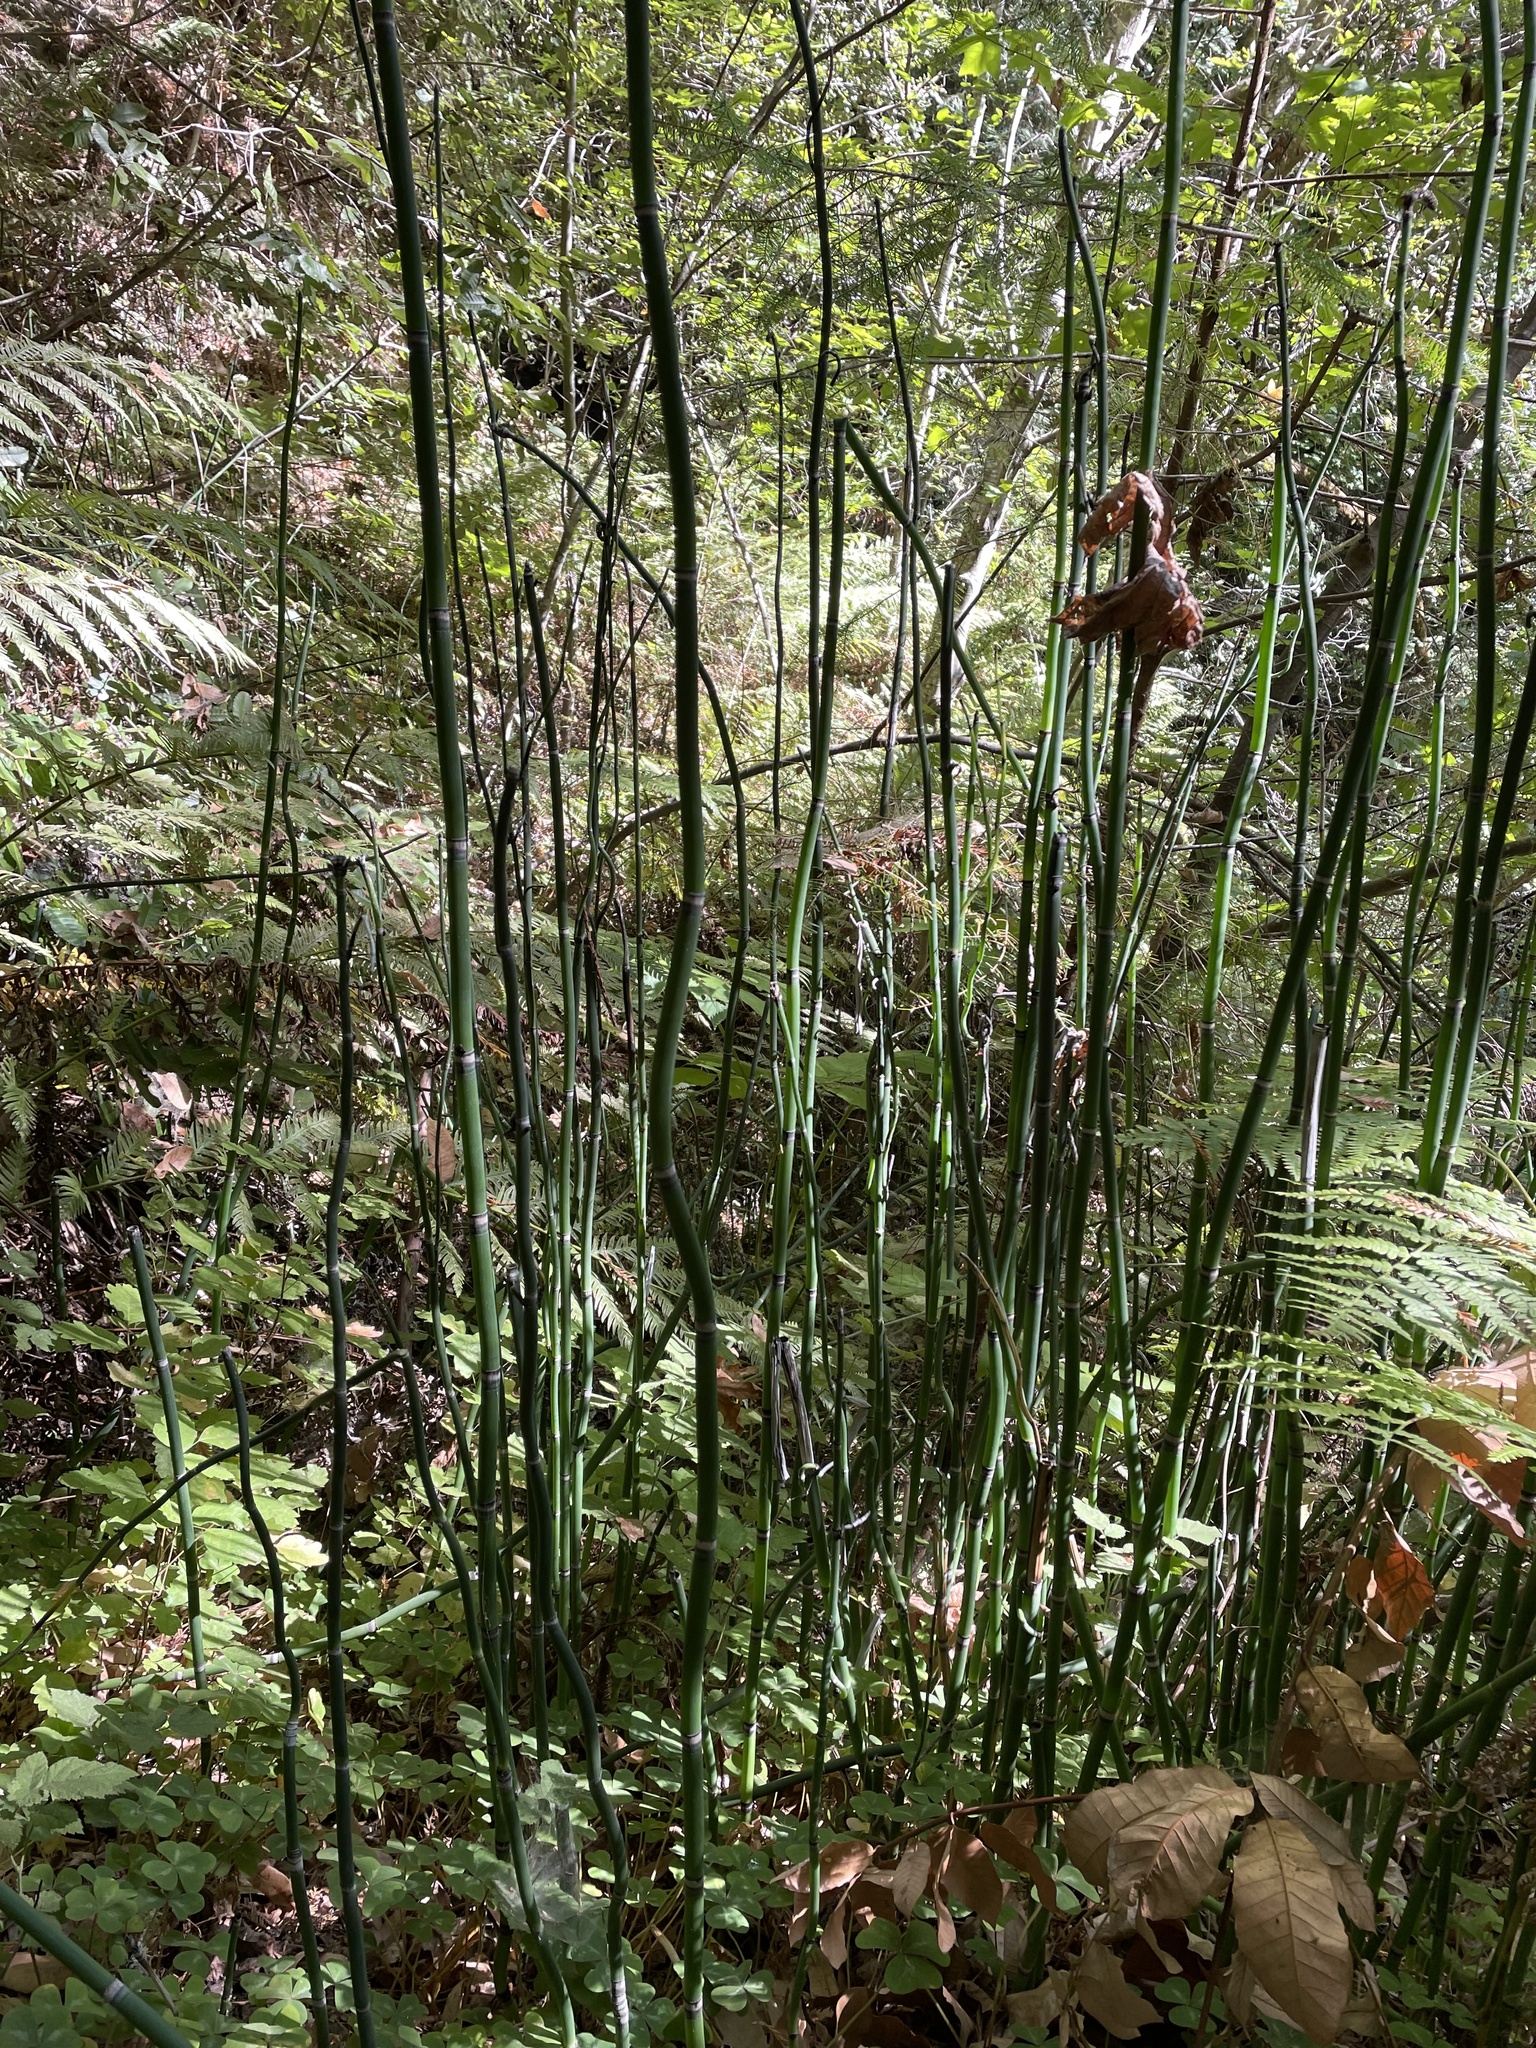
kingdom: Plantae
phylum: Tracheophyta
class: Polypodiopsida
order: Equisetales
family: Equisetaceae
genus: Equisetum
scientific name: Equisetum praealtum
